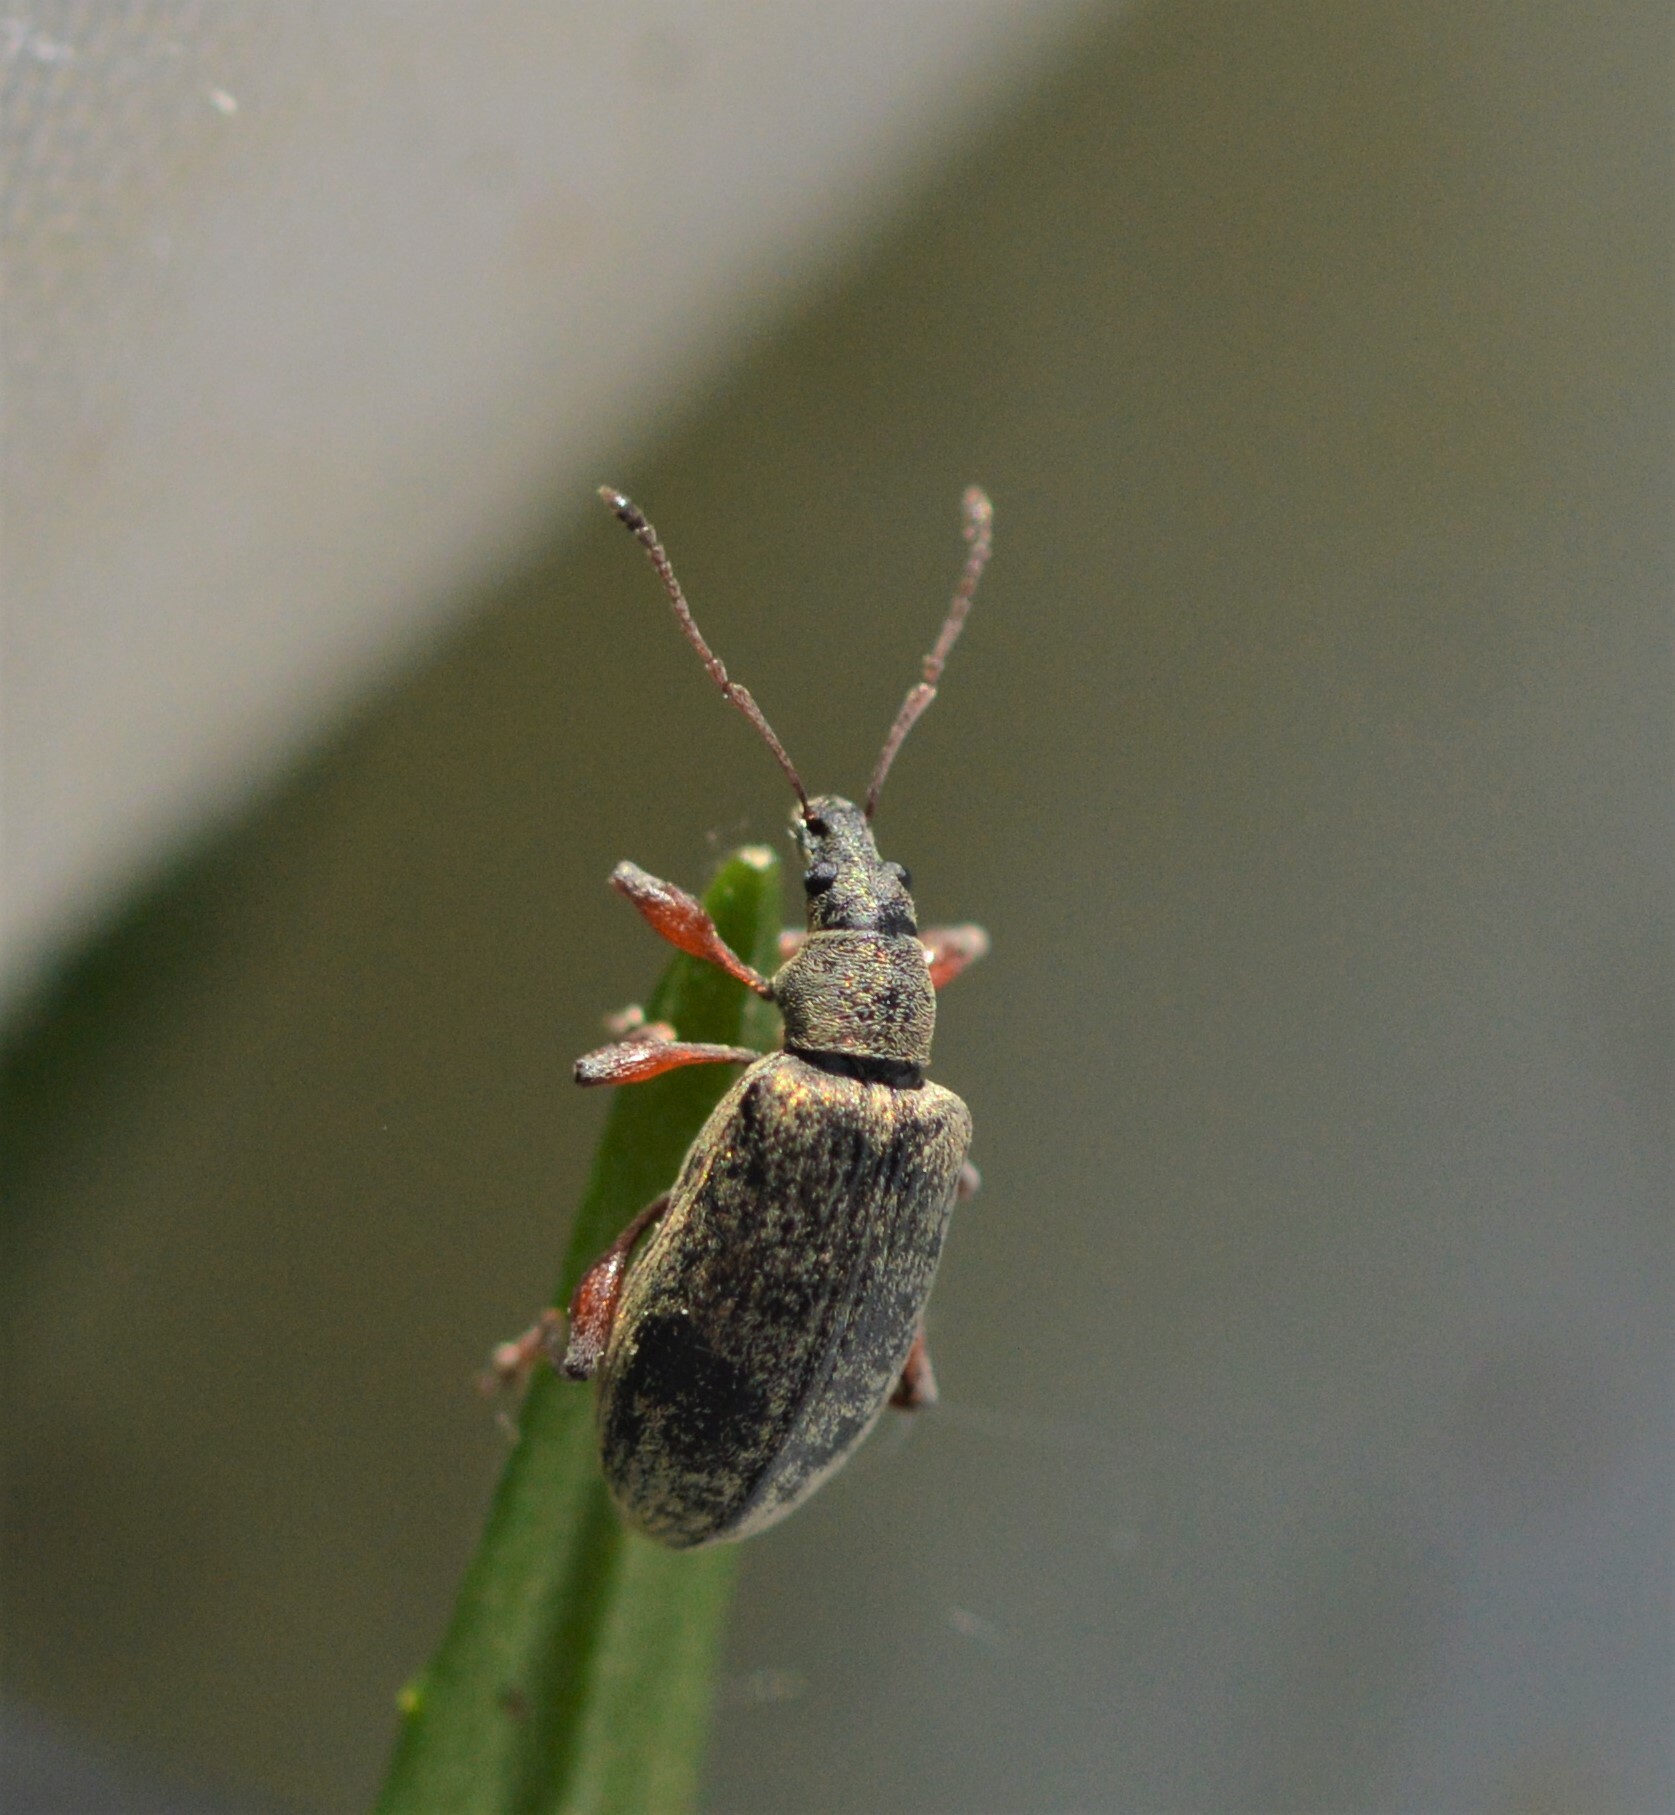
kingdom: Animalia
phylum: Arthropoda
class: Insecta
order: Coleoptera
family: Curculionidae
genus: Phyllobius
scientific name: Phyllobius glaucus
